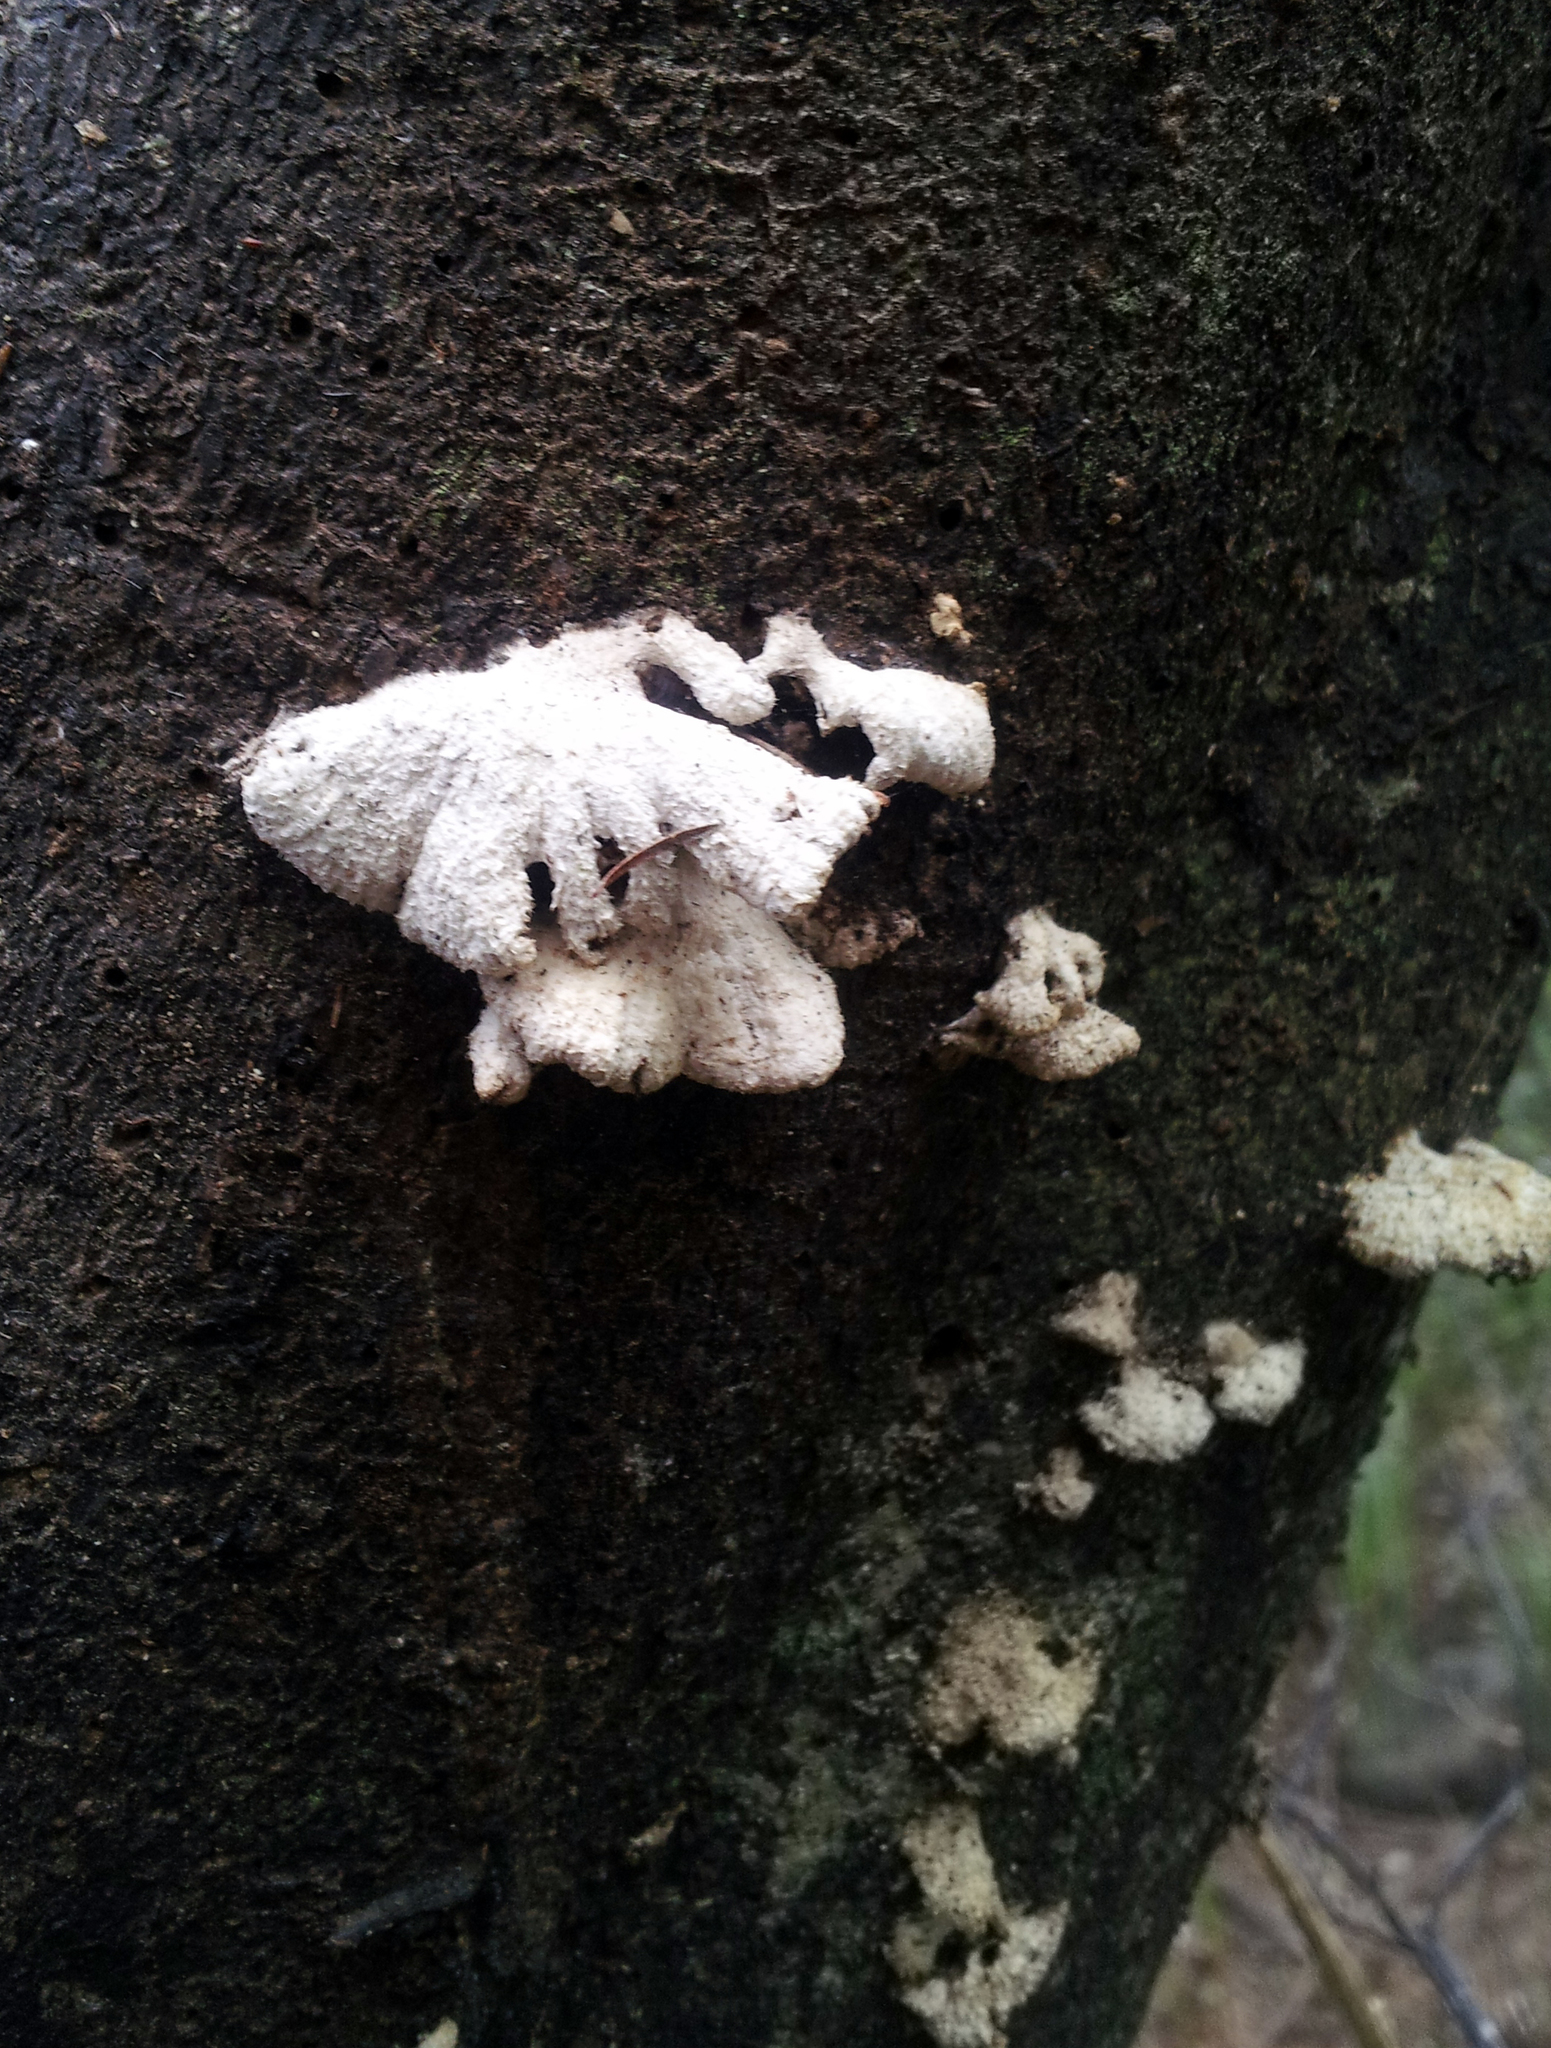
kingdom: Fungi
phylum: Basidiomycota
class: Agaricomycetes
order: Agaricales
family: Schizophyllaceae
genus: Schizophyllum
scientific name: Schizophyllum commune
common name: Common porecrust
